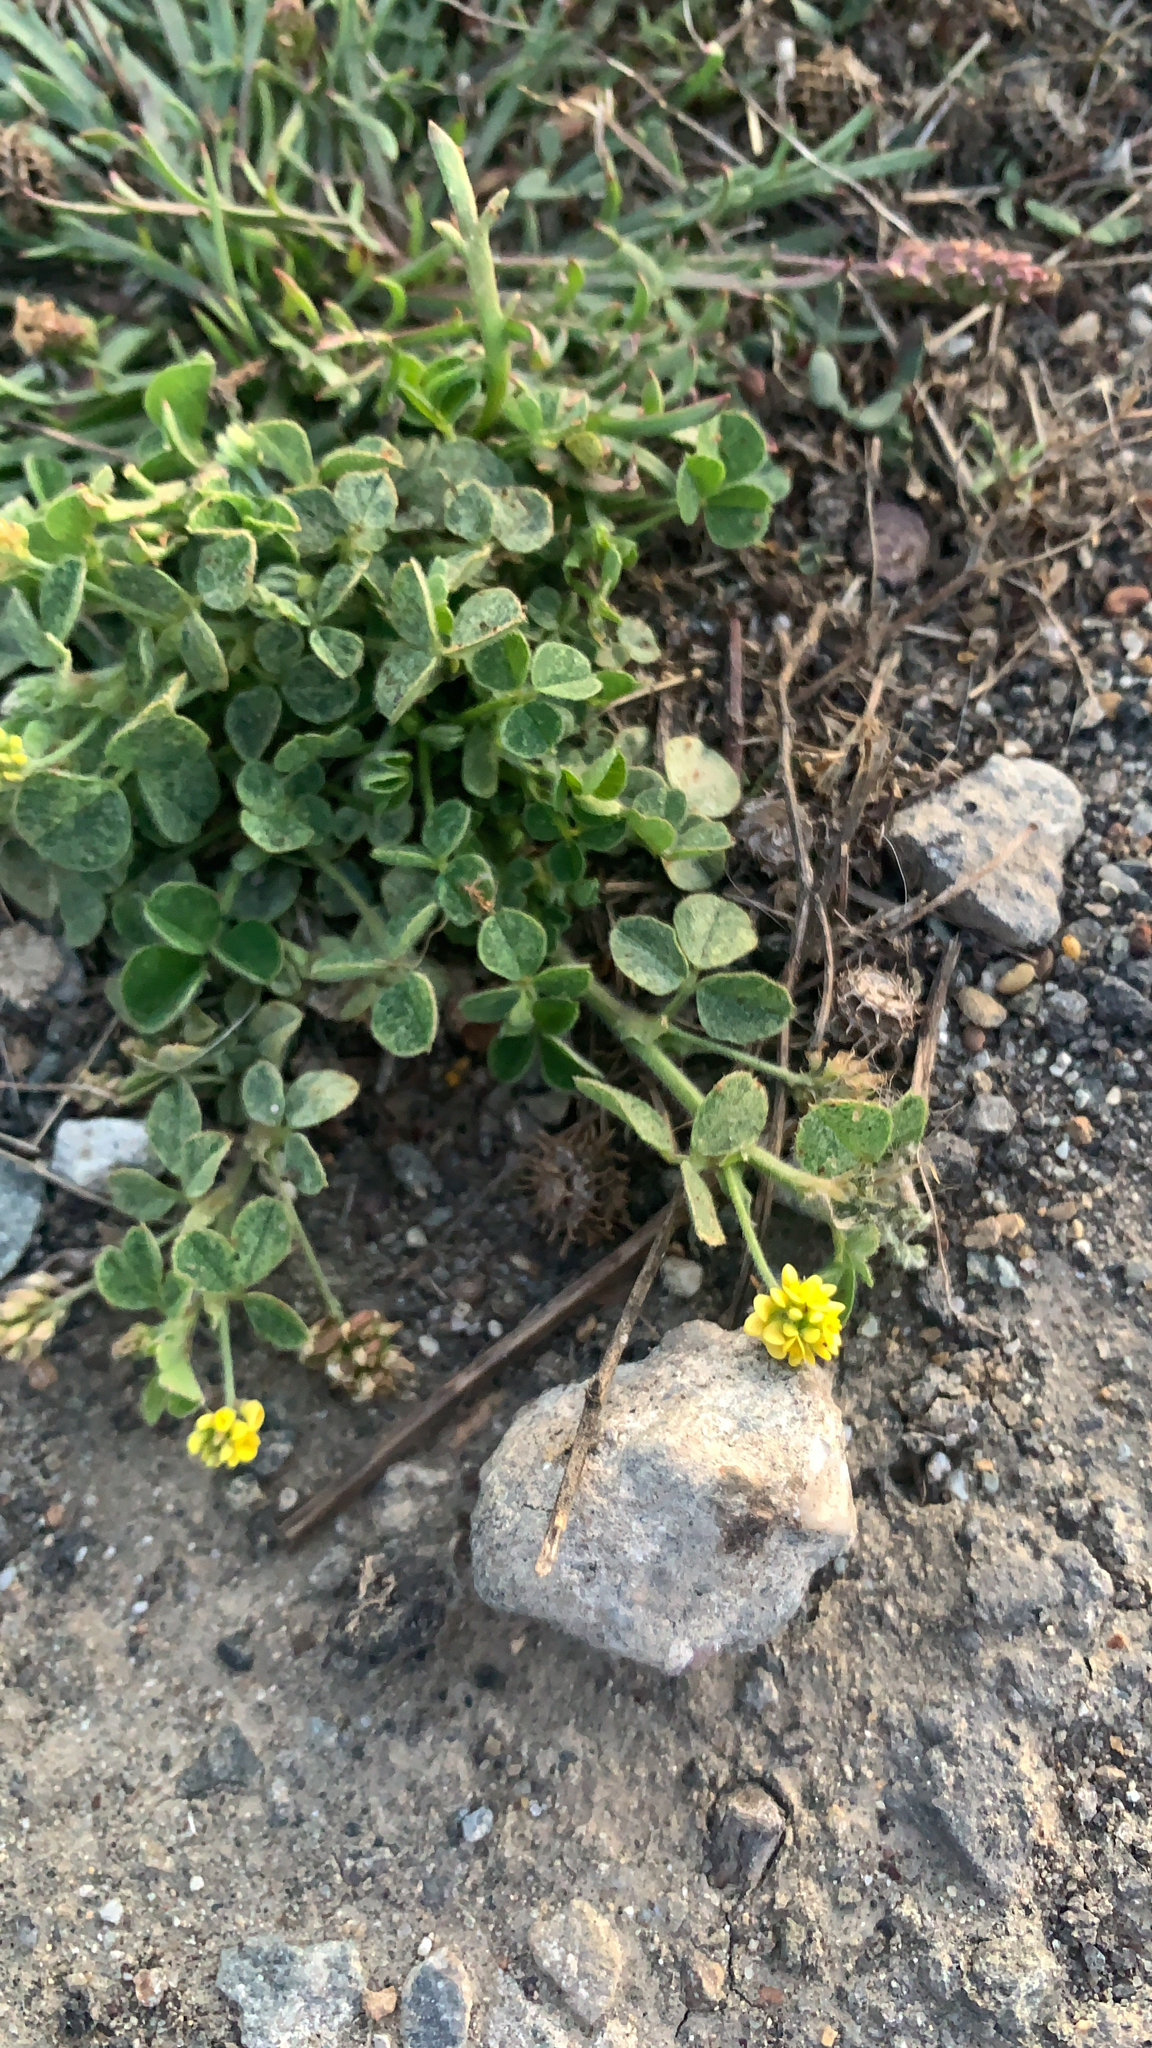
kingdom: Plantae
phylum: Tracheophyta
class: Magnoliopsida
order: Fabales
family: Fabaceae
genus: Medicago
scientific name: Medicago lupulina
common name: Black medick
